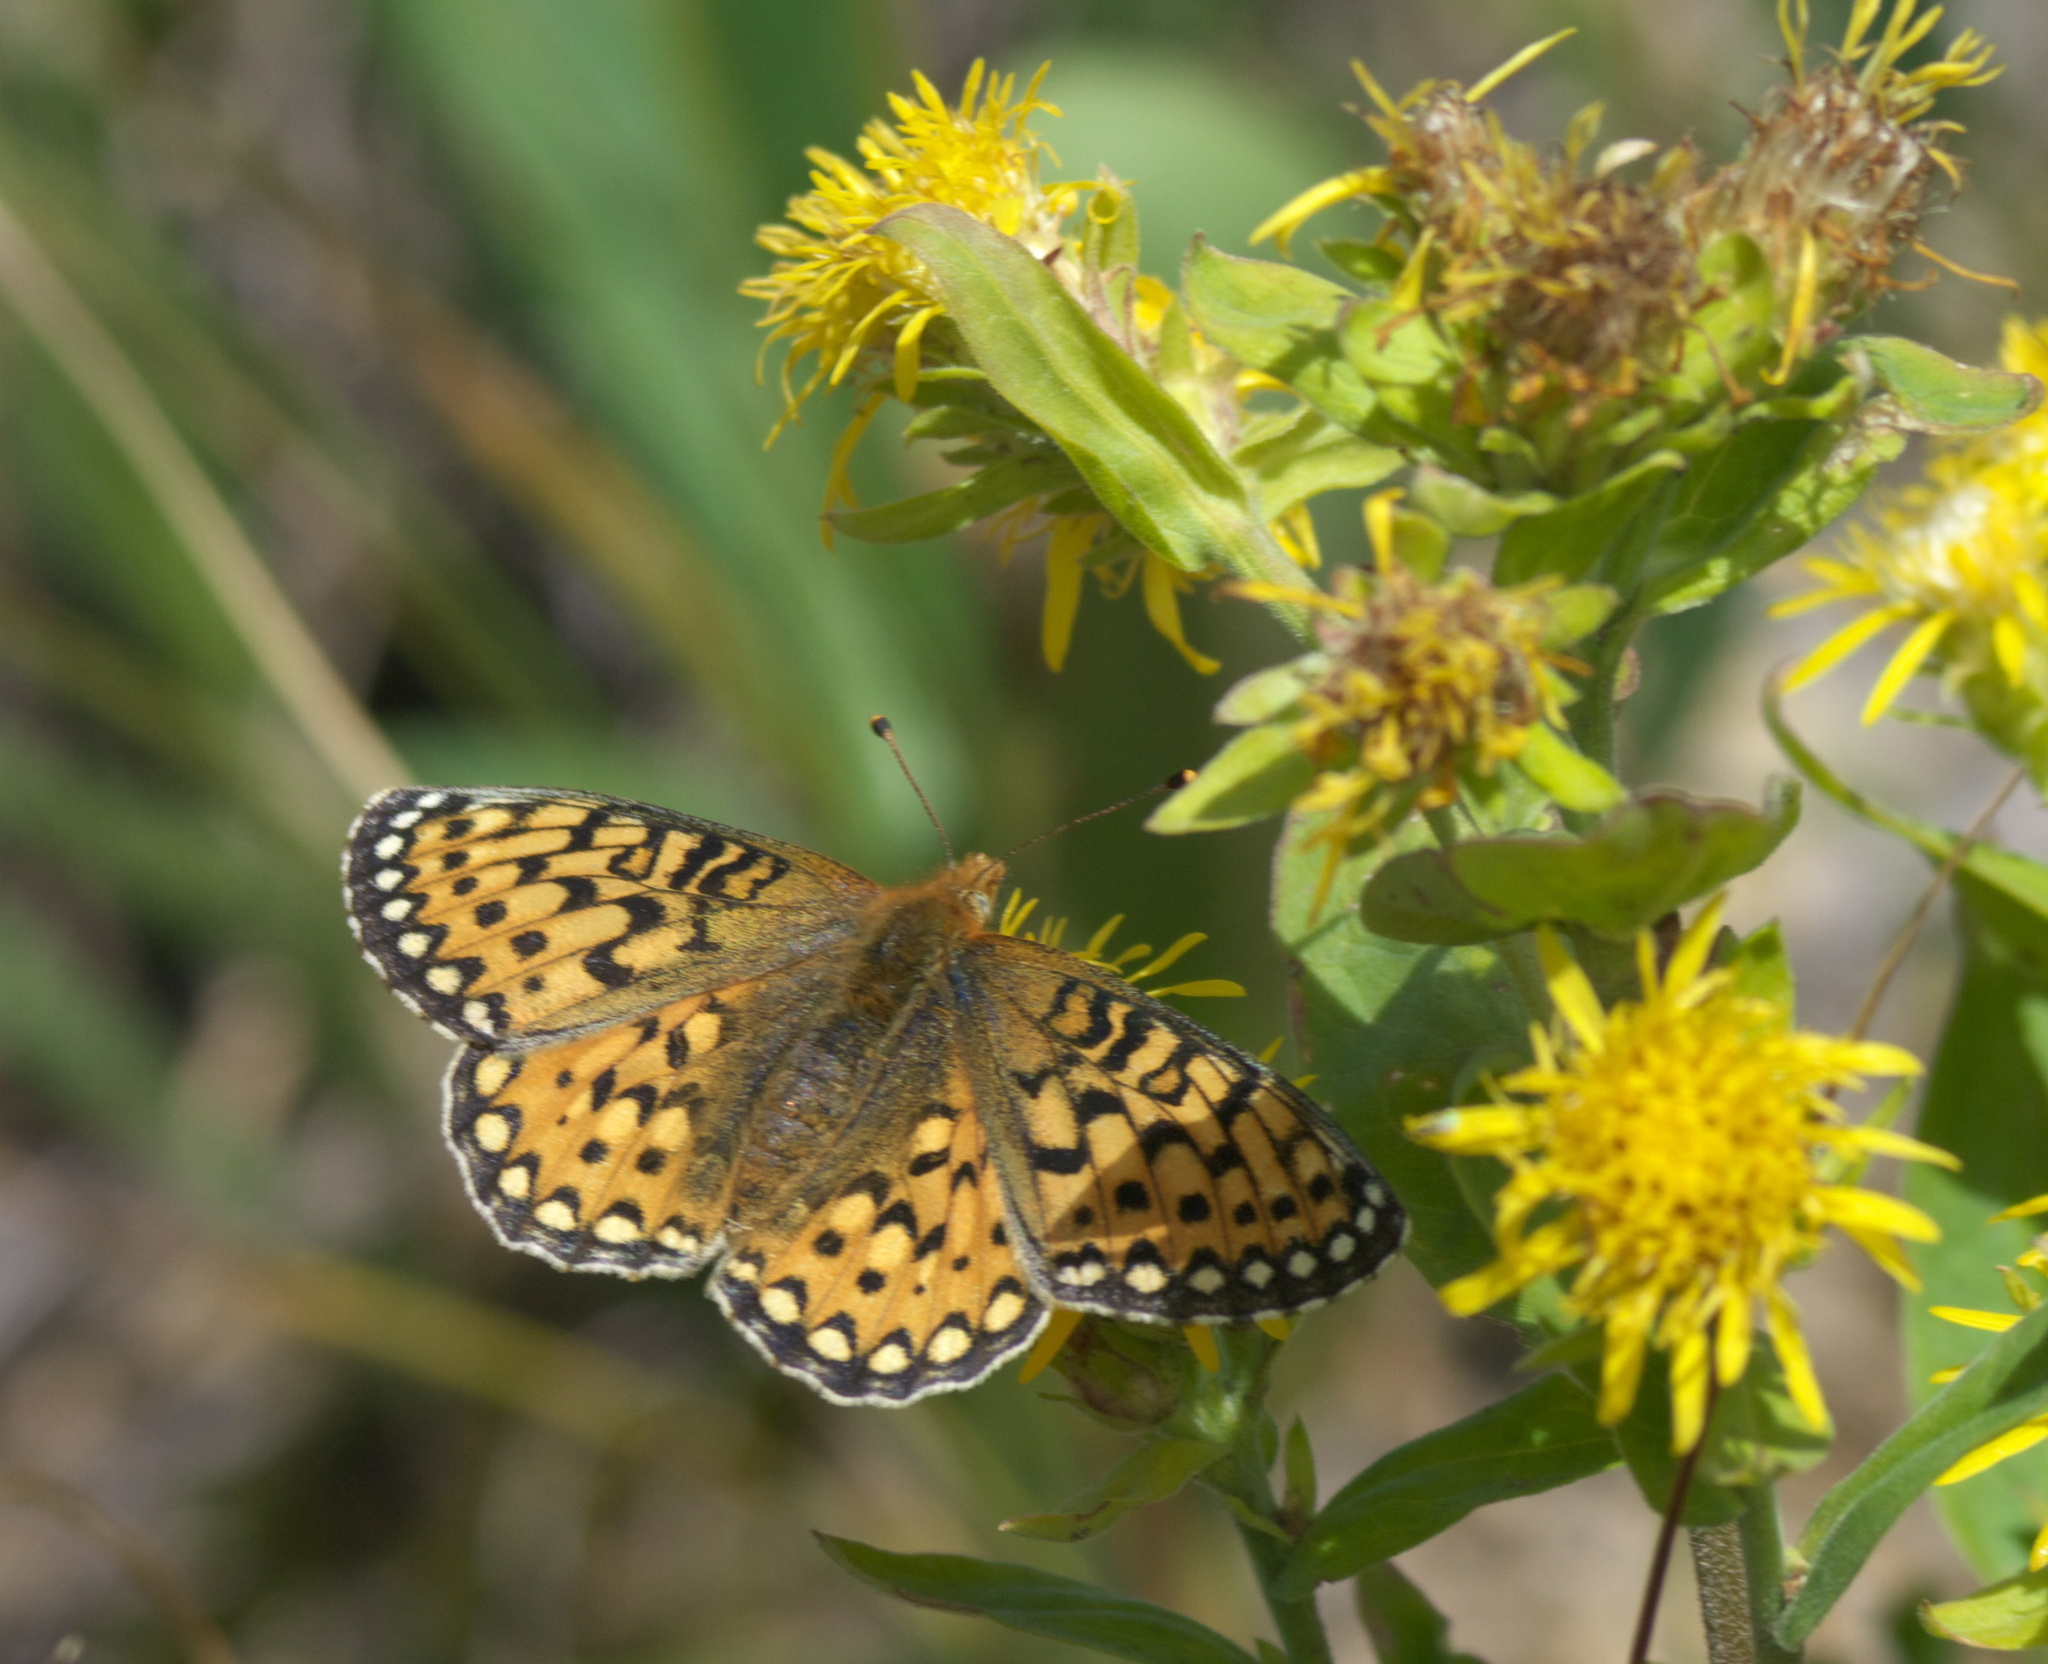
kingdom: Animalia
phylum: Arthropoda
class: Insecta
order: Lepidoptera
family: Nymphalidae
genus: Speyeria
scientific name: Speyeria mormonia
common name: Mormon fritillary
